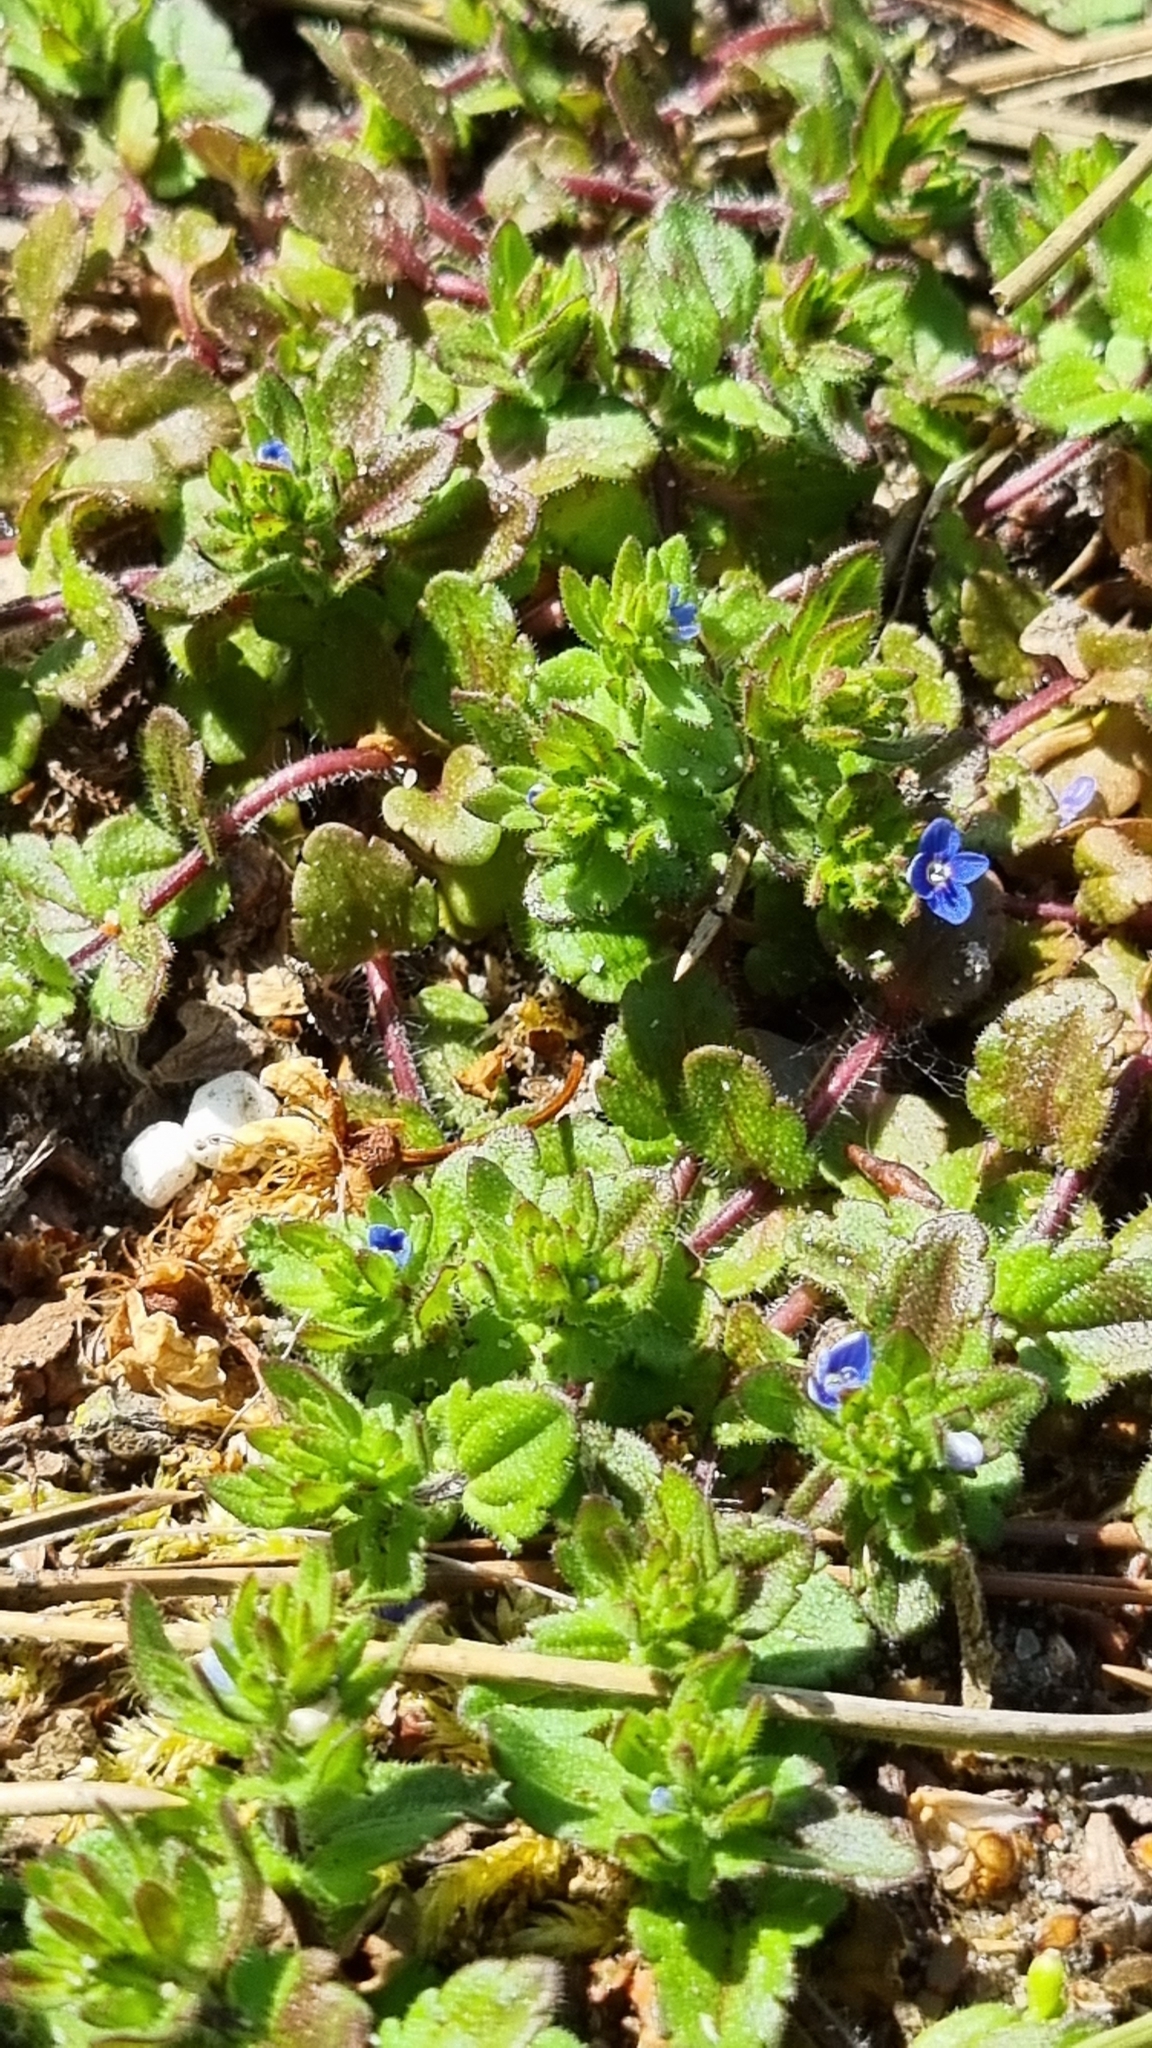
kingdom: Plantae
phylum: Tracheophyta
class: Magnoliopsida
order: Lamiales
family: Plantaginaceae
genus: Veronica
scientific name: Veronica arvensis
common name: Corn speedwell
